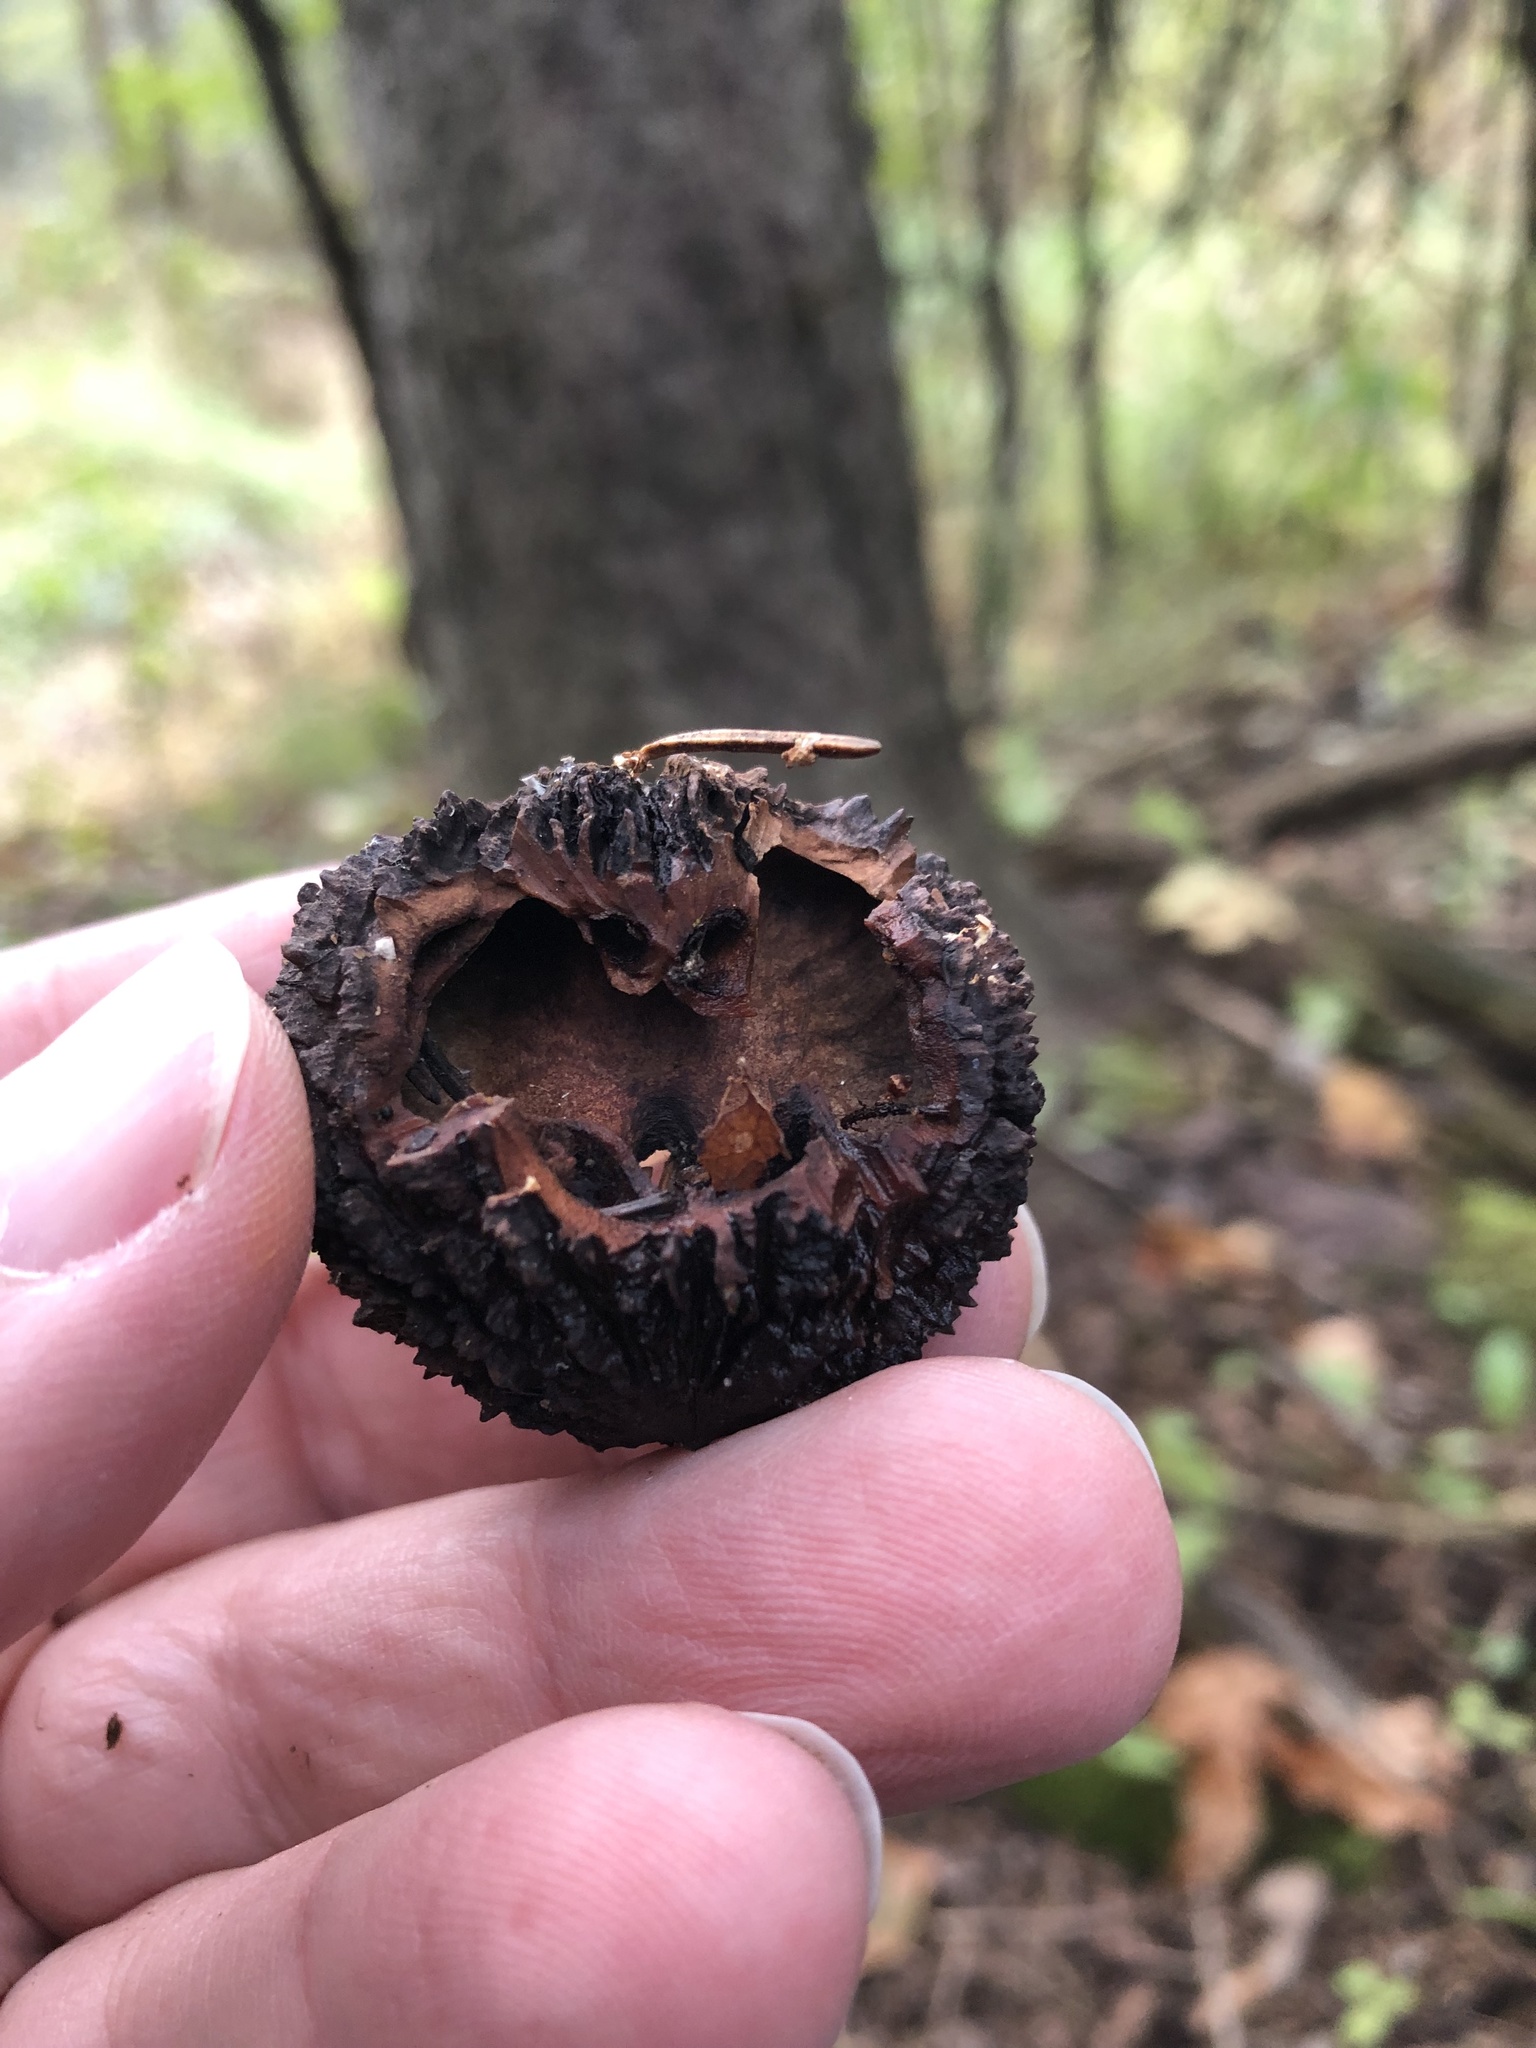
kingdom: Plantae
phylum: Tracheophyta
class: Magnoliopsida
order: Fagales
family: Juglandaceae
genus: Juglans
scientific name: Juglans nigra
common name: Black walnut
